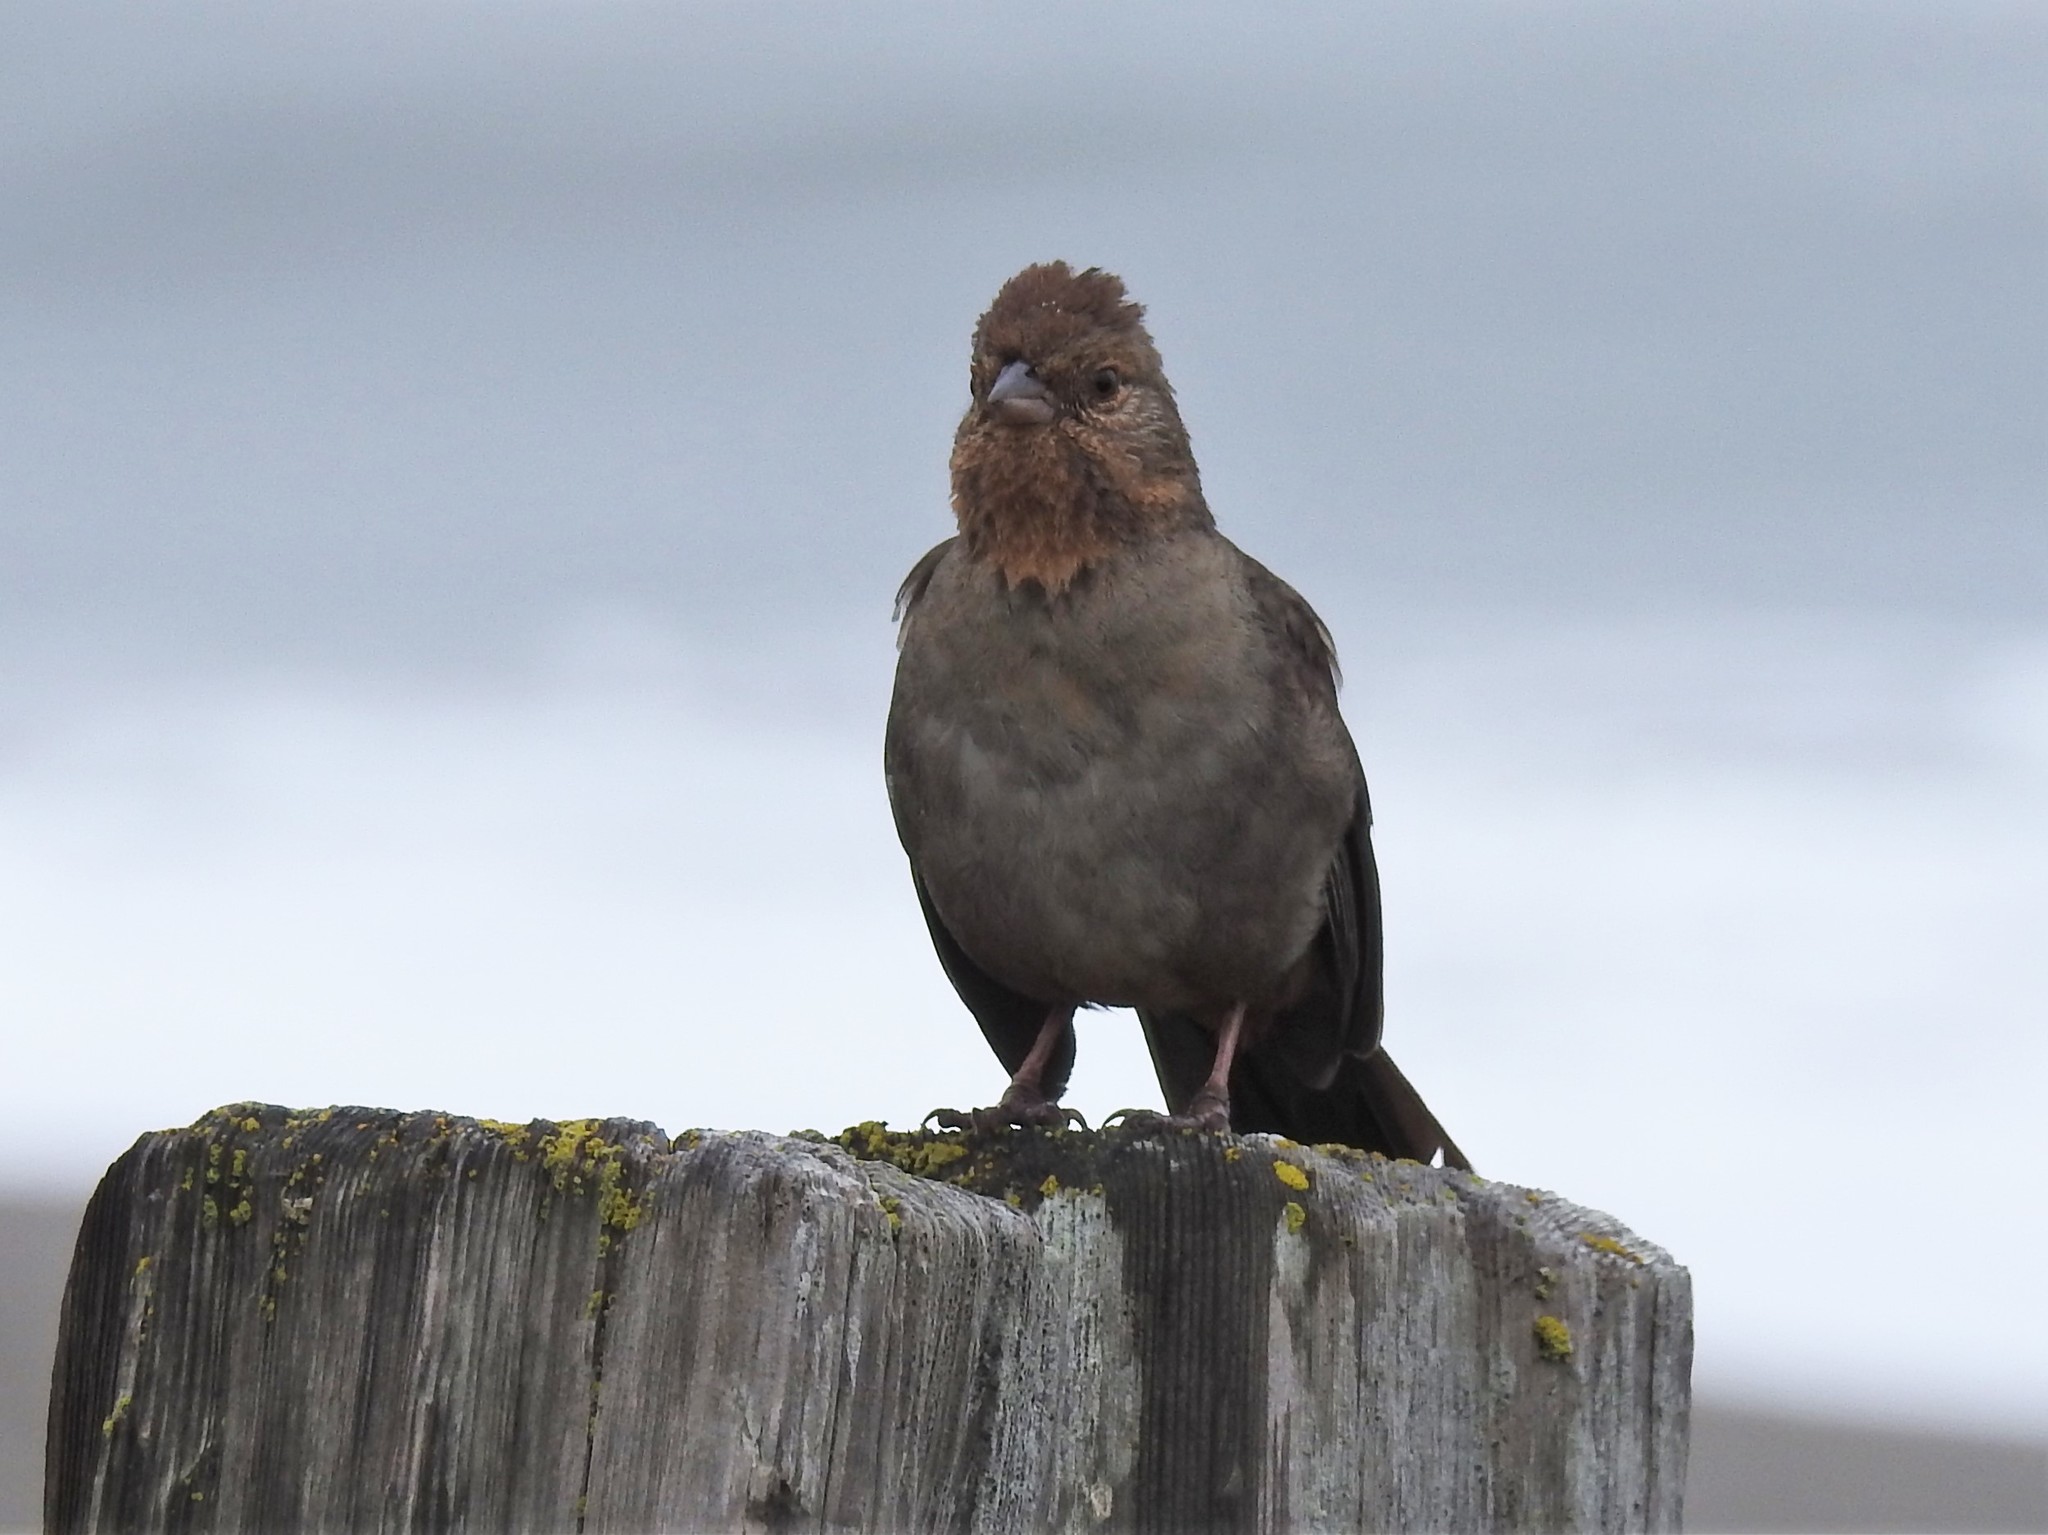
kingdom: Animalia
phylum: Chordata
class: Aves
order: Passeriformes
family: Passerellidae
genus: Melozone
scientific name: Melozone crissalis
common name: California towhee
